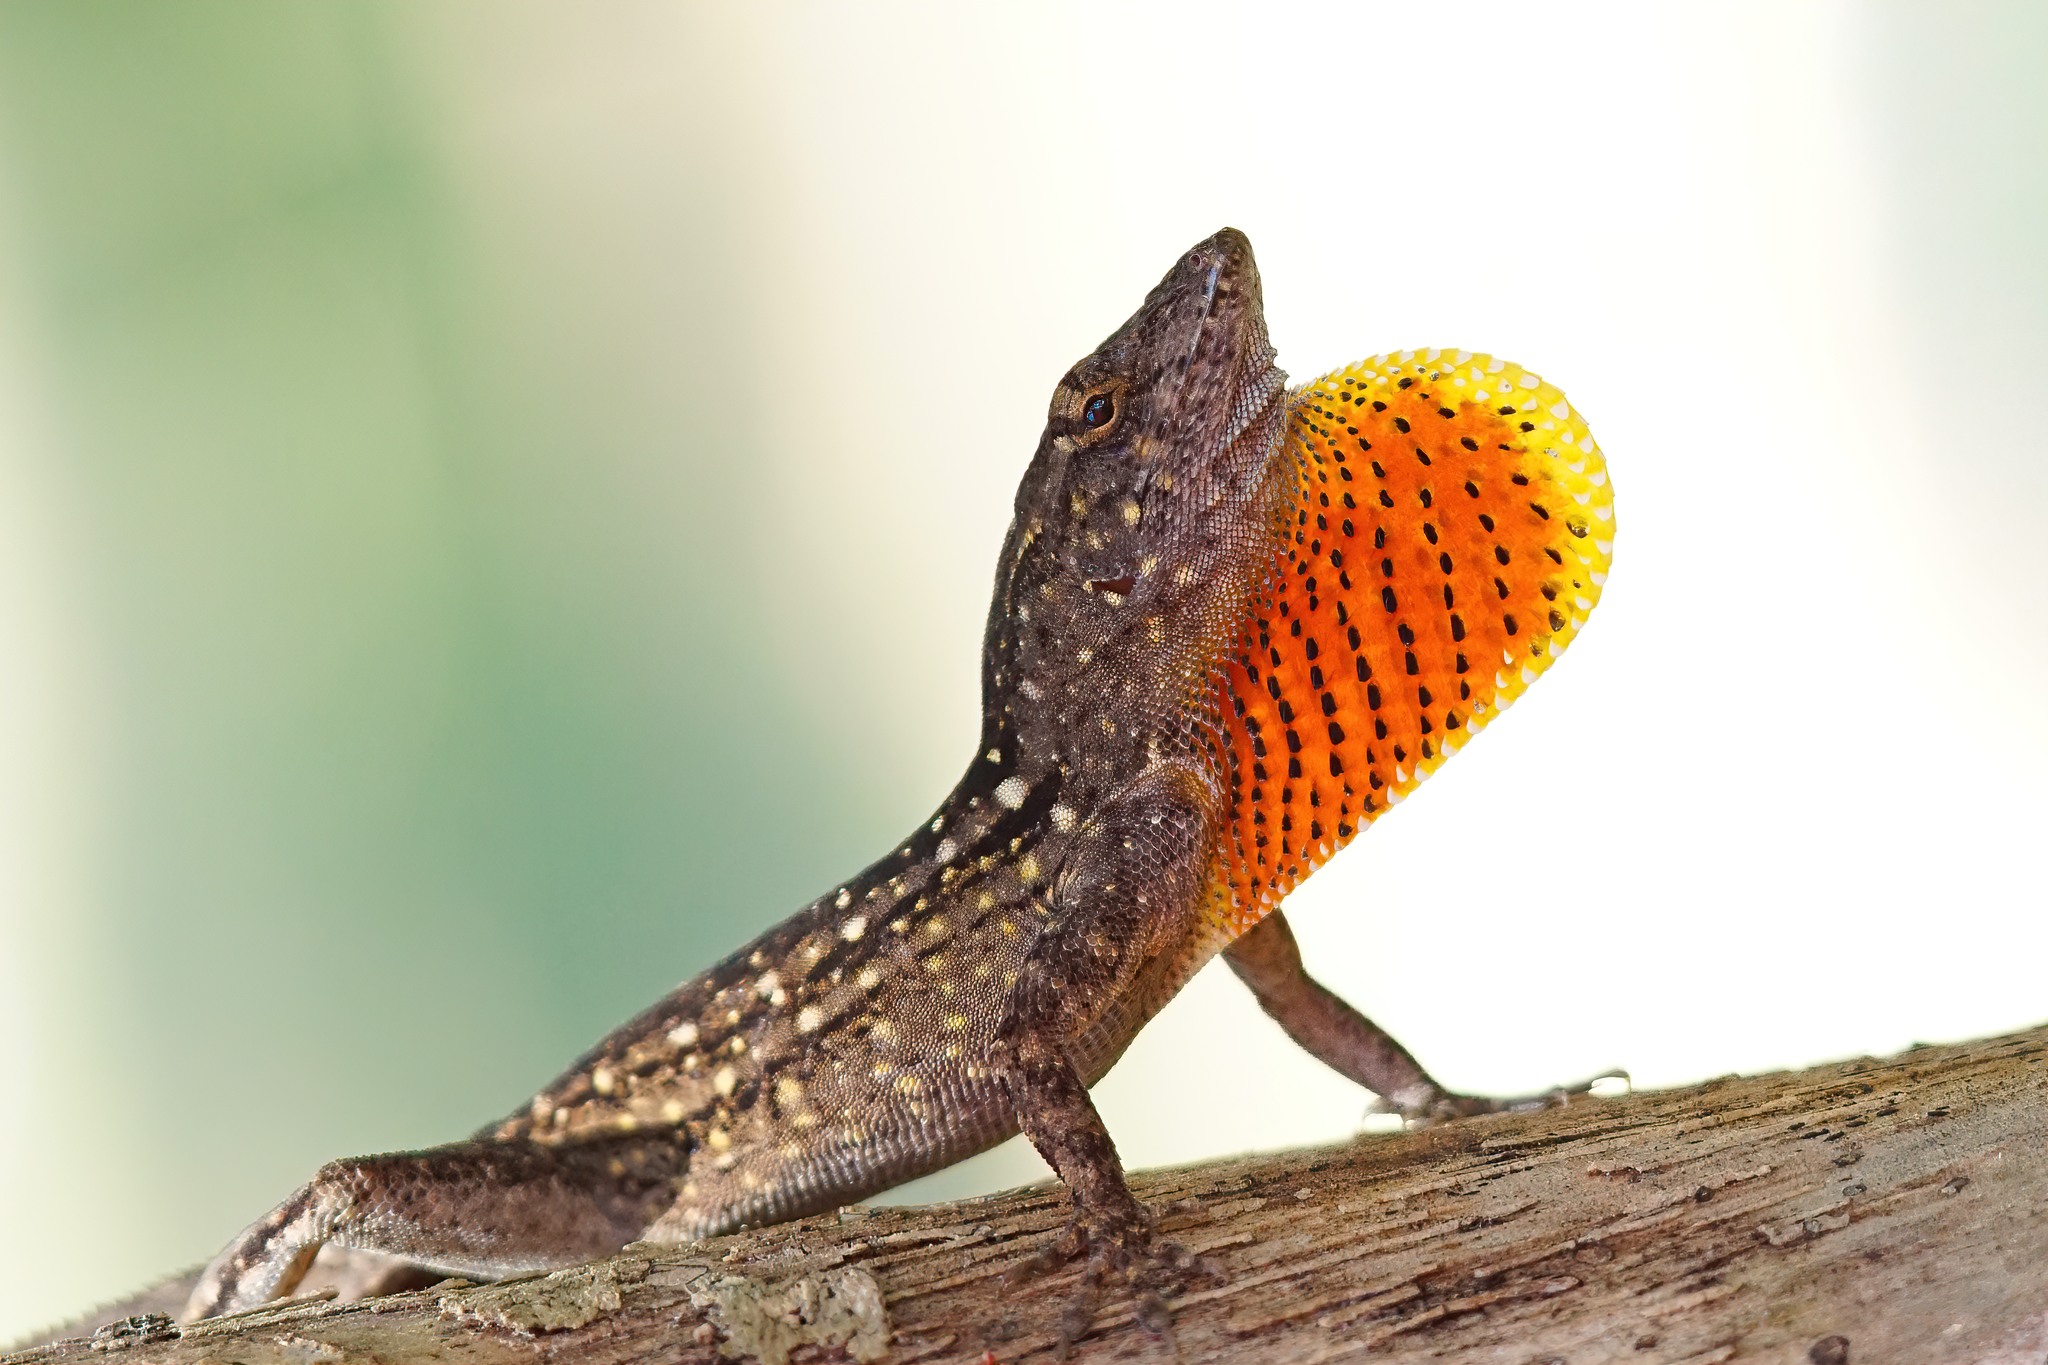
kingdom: Animalia
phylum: Chordata
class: Squamata
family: Dactyloidae
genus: Anolis
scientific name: Anolis sagrei
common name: Brown anole
